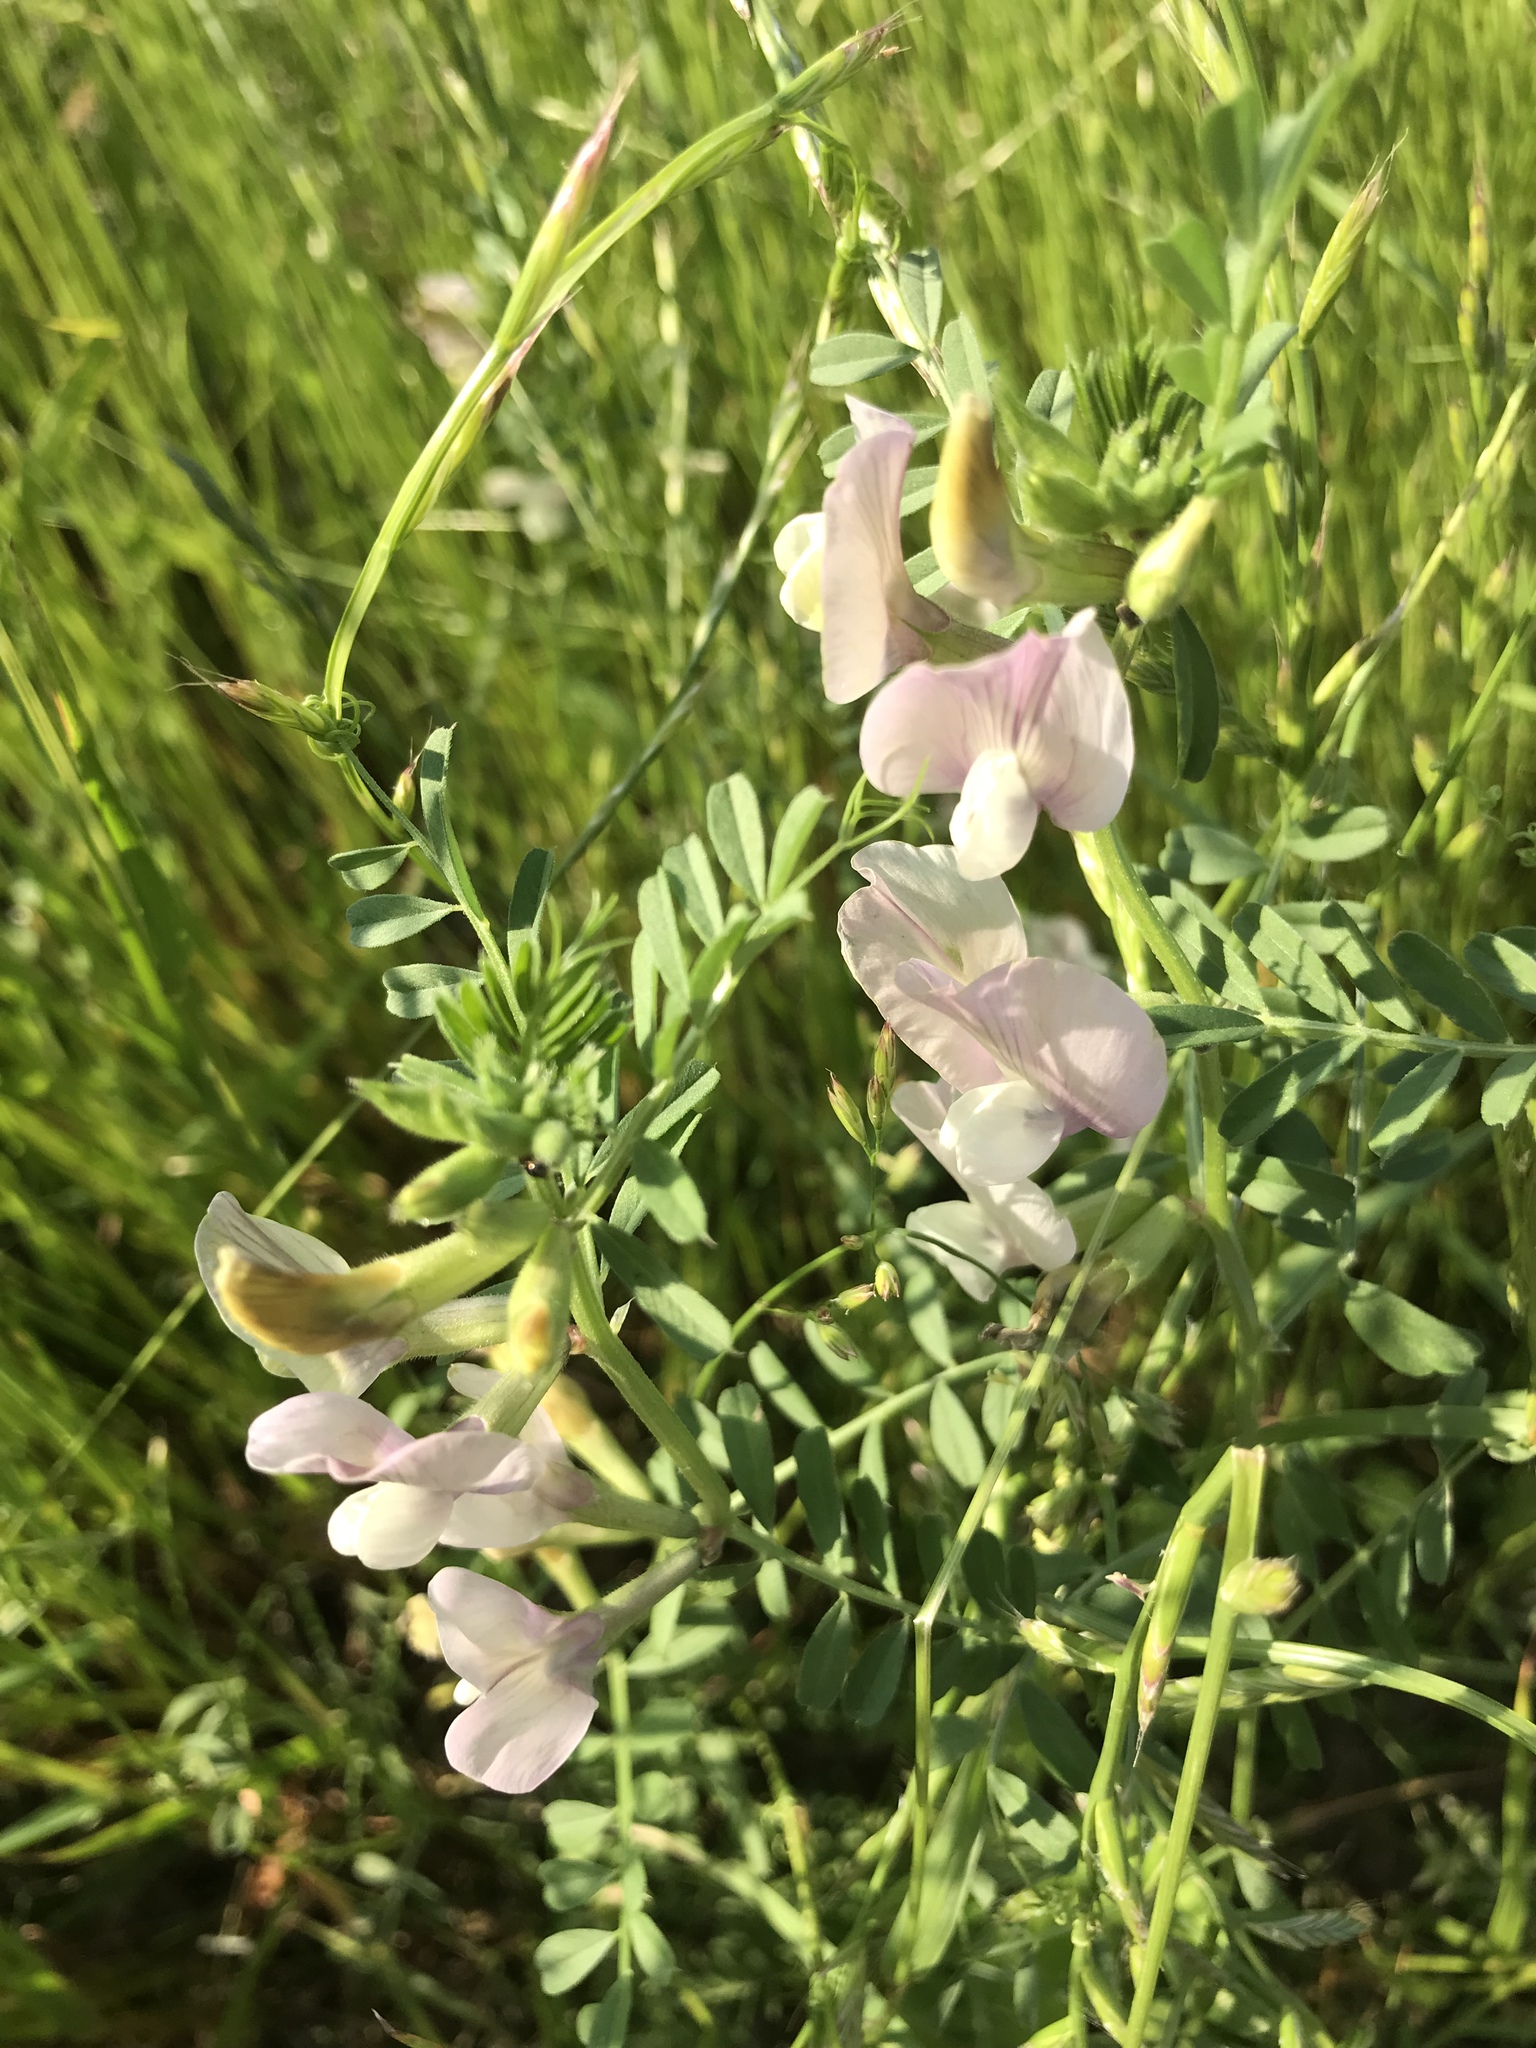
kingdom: Plantae
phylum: Tracheophyta
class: Magnoliopsida
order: Fabales
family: Fabaceae
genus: Vicia
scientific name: Vicia grandiflora
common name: Large yellow vetch
